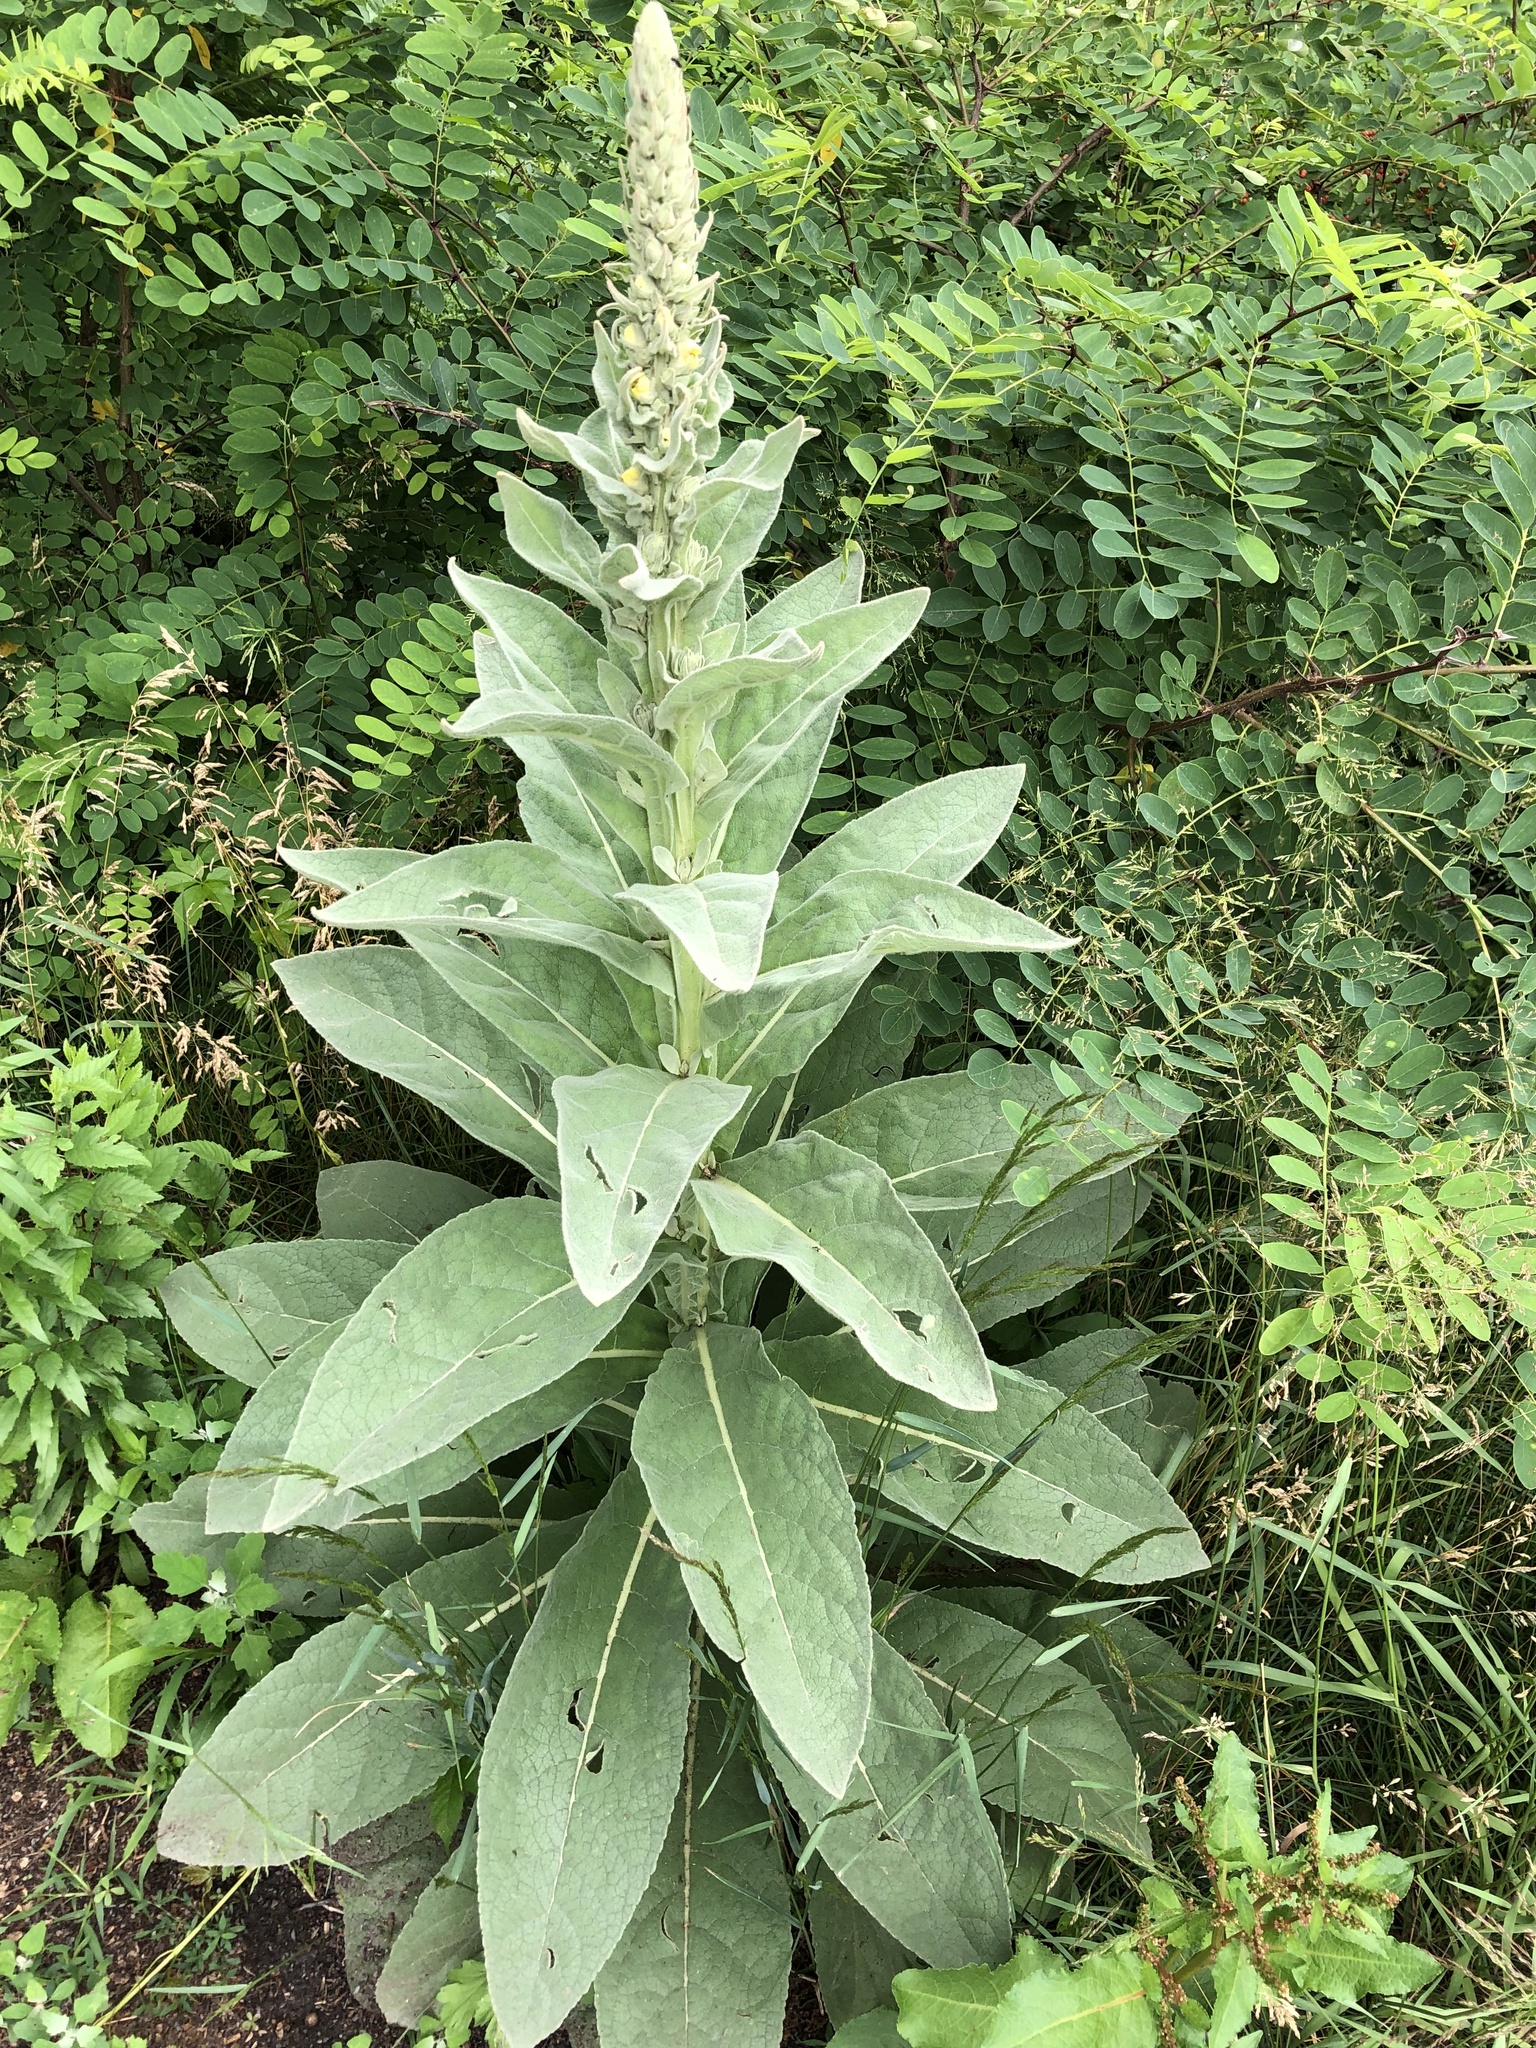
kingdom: Plantae
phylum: Tracheophyta
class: Magnoliopsida
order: Lamiales
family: Scrophulariaceae
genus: Verbascum
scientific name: Verbascum thapsus
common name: Common mullein
